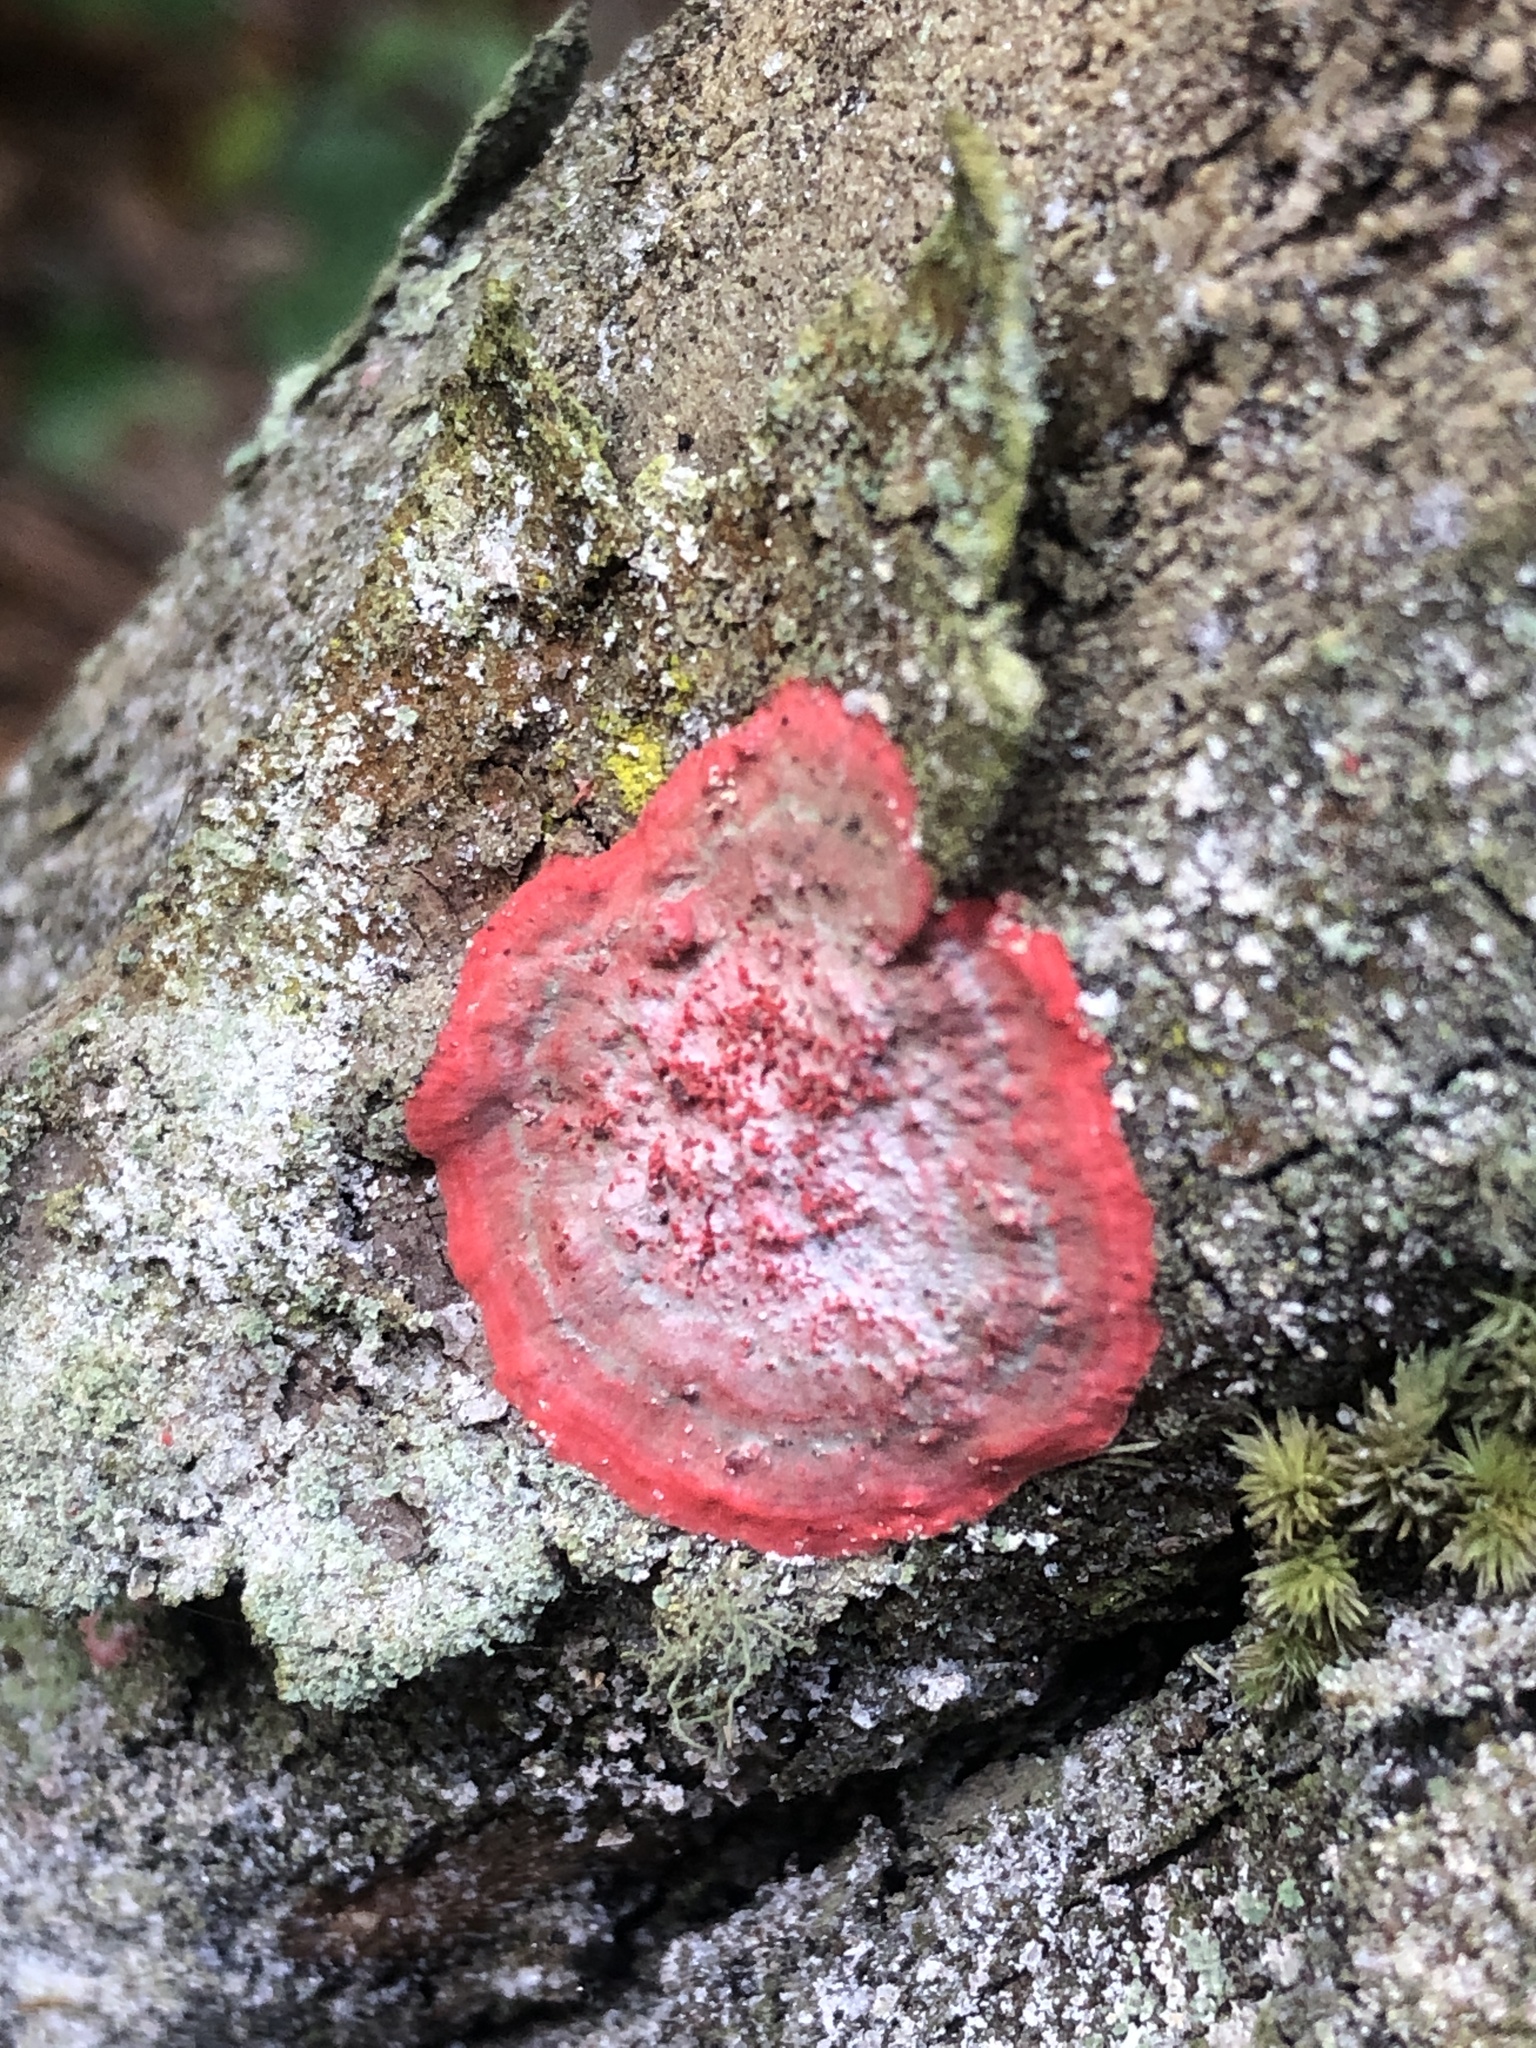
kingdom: Fungi
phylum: Ascomycota
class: Arthoniomycetes
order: Arthoniales
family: Arthoniaceae
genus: Herpothallon
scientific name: Herpothallon rubrocinctum
